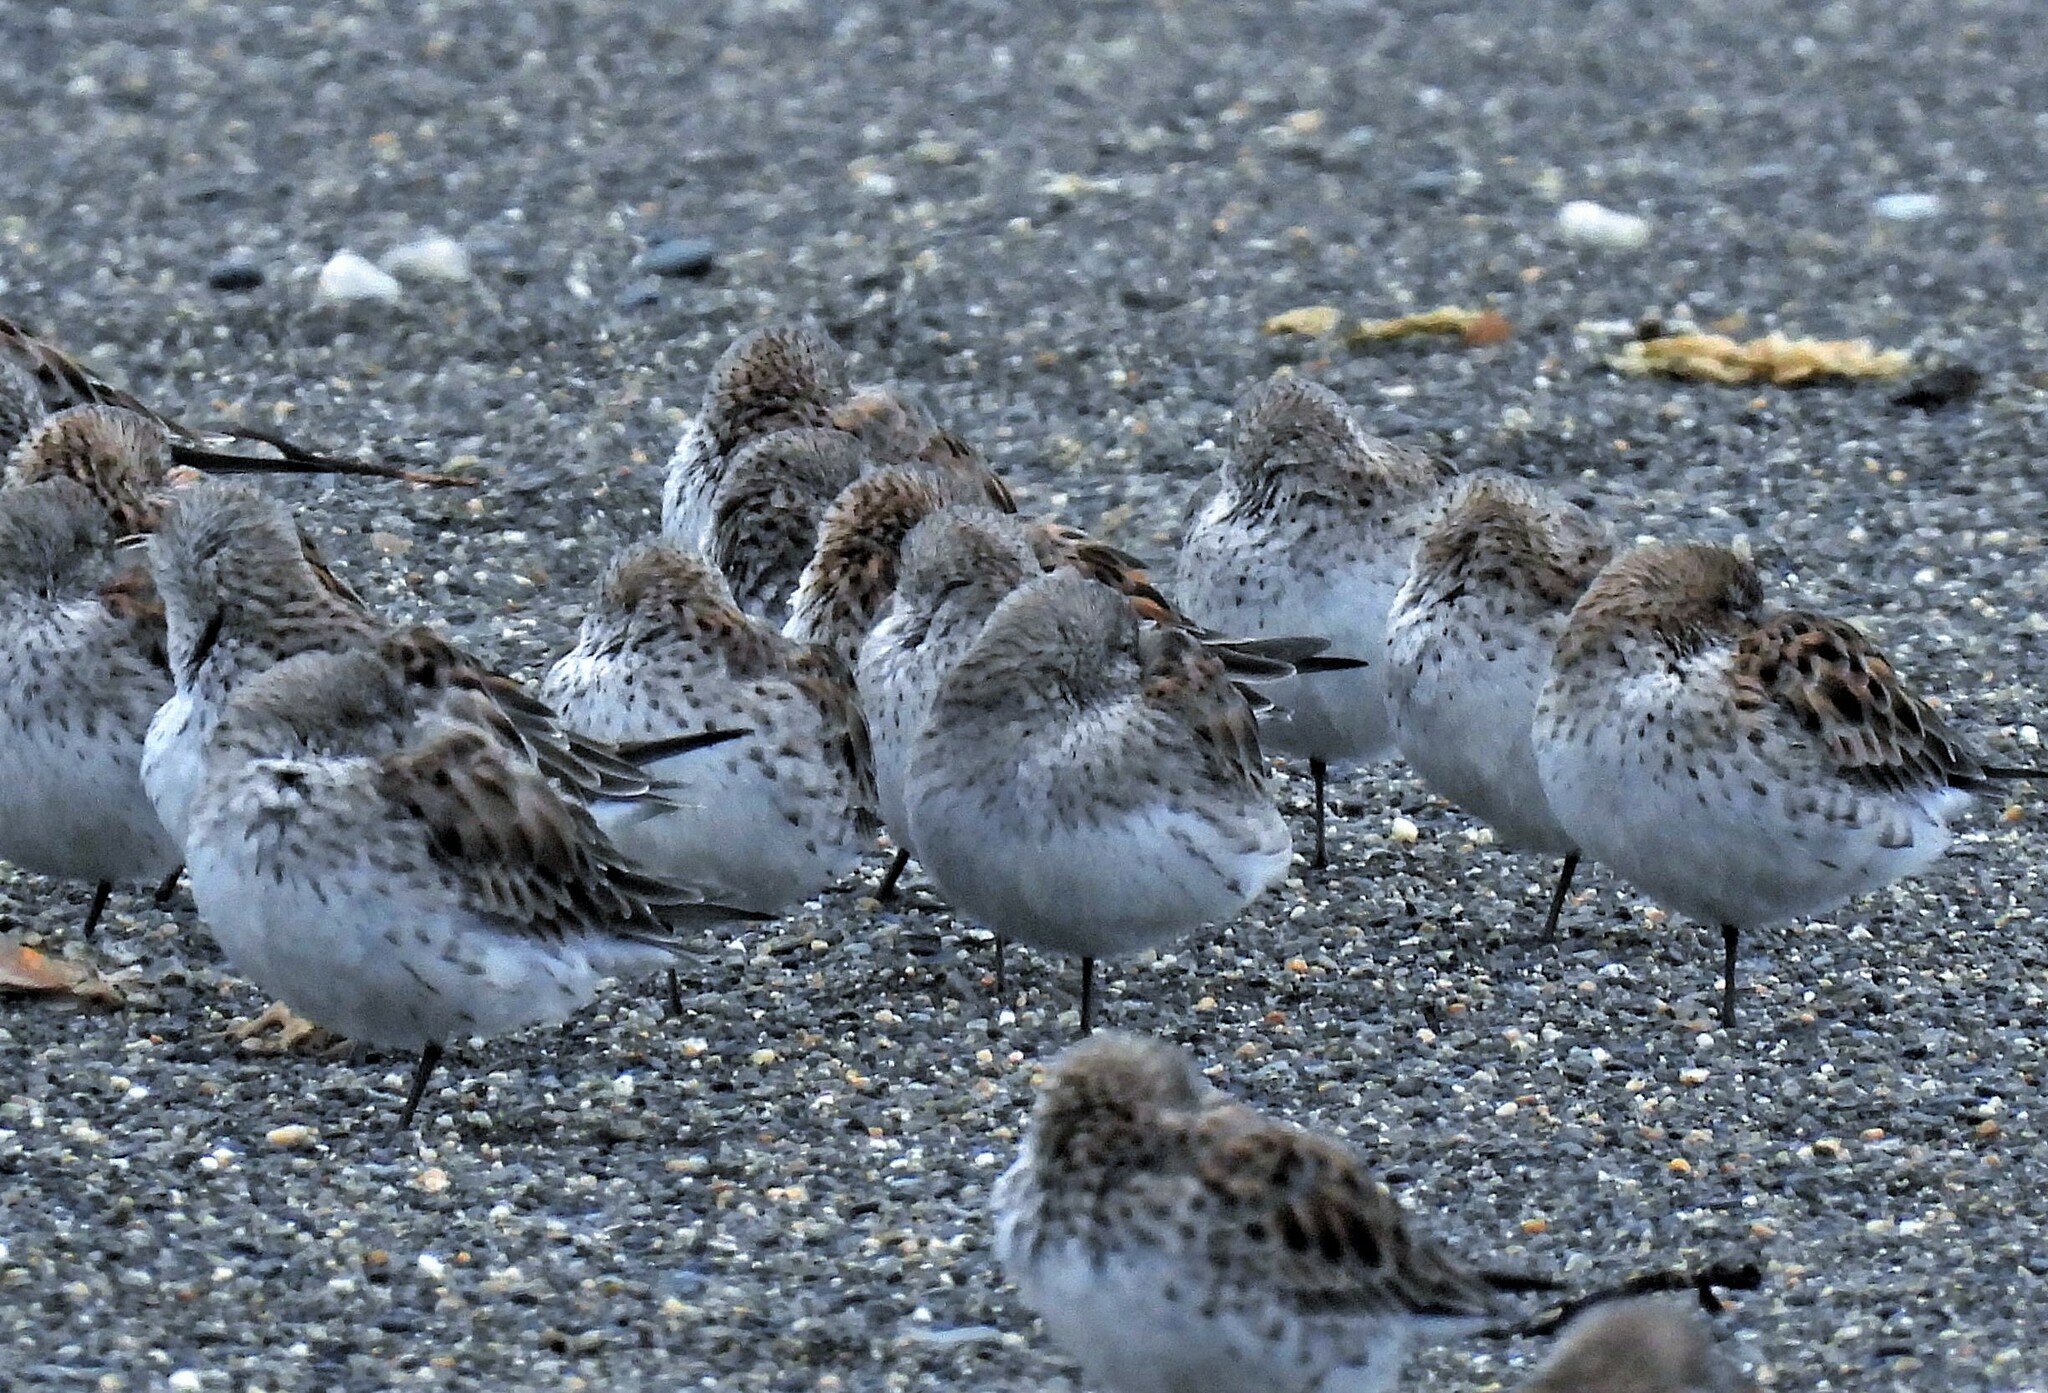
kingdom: Animalia
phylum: Chordata
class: Aves
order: Charadriiformes
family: Scolopacidae
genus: Calidris
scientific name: Calidris fuscicollis
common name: White-rumped sandpiper
